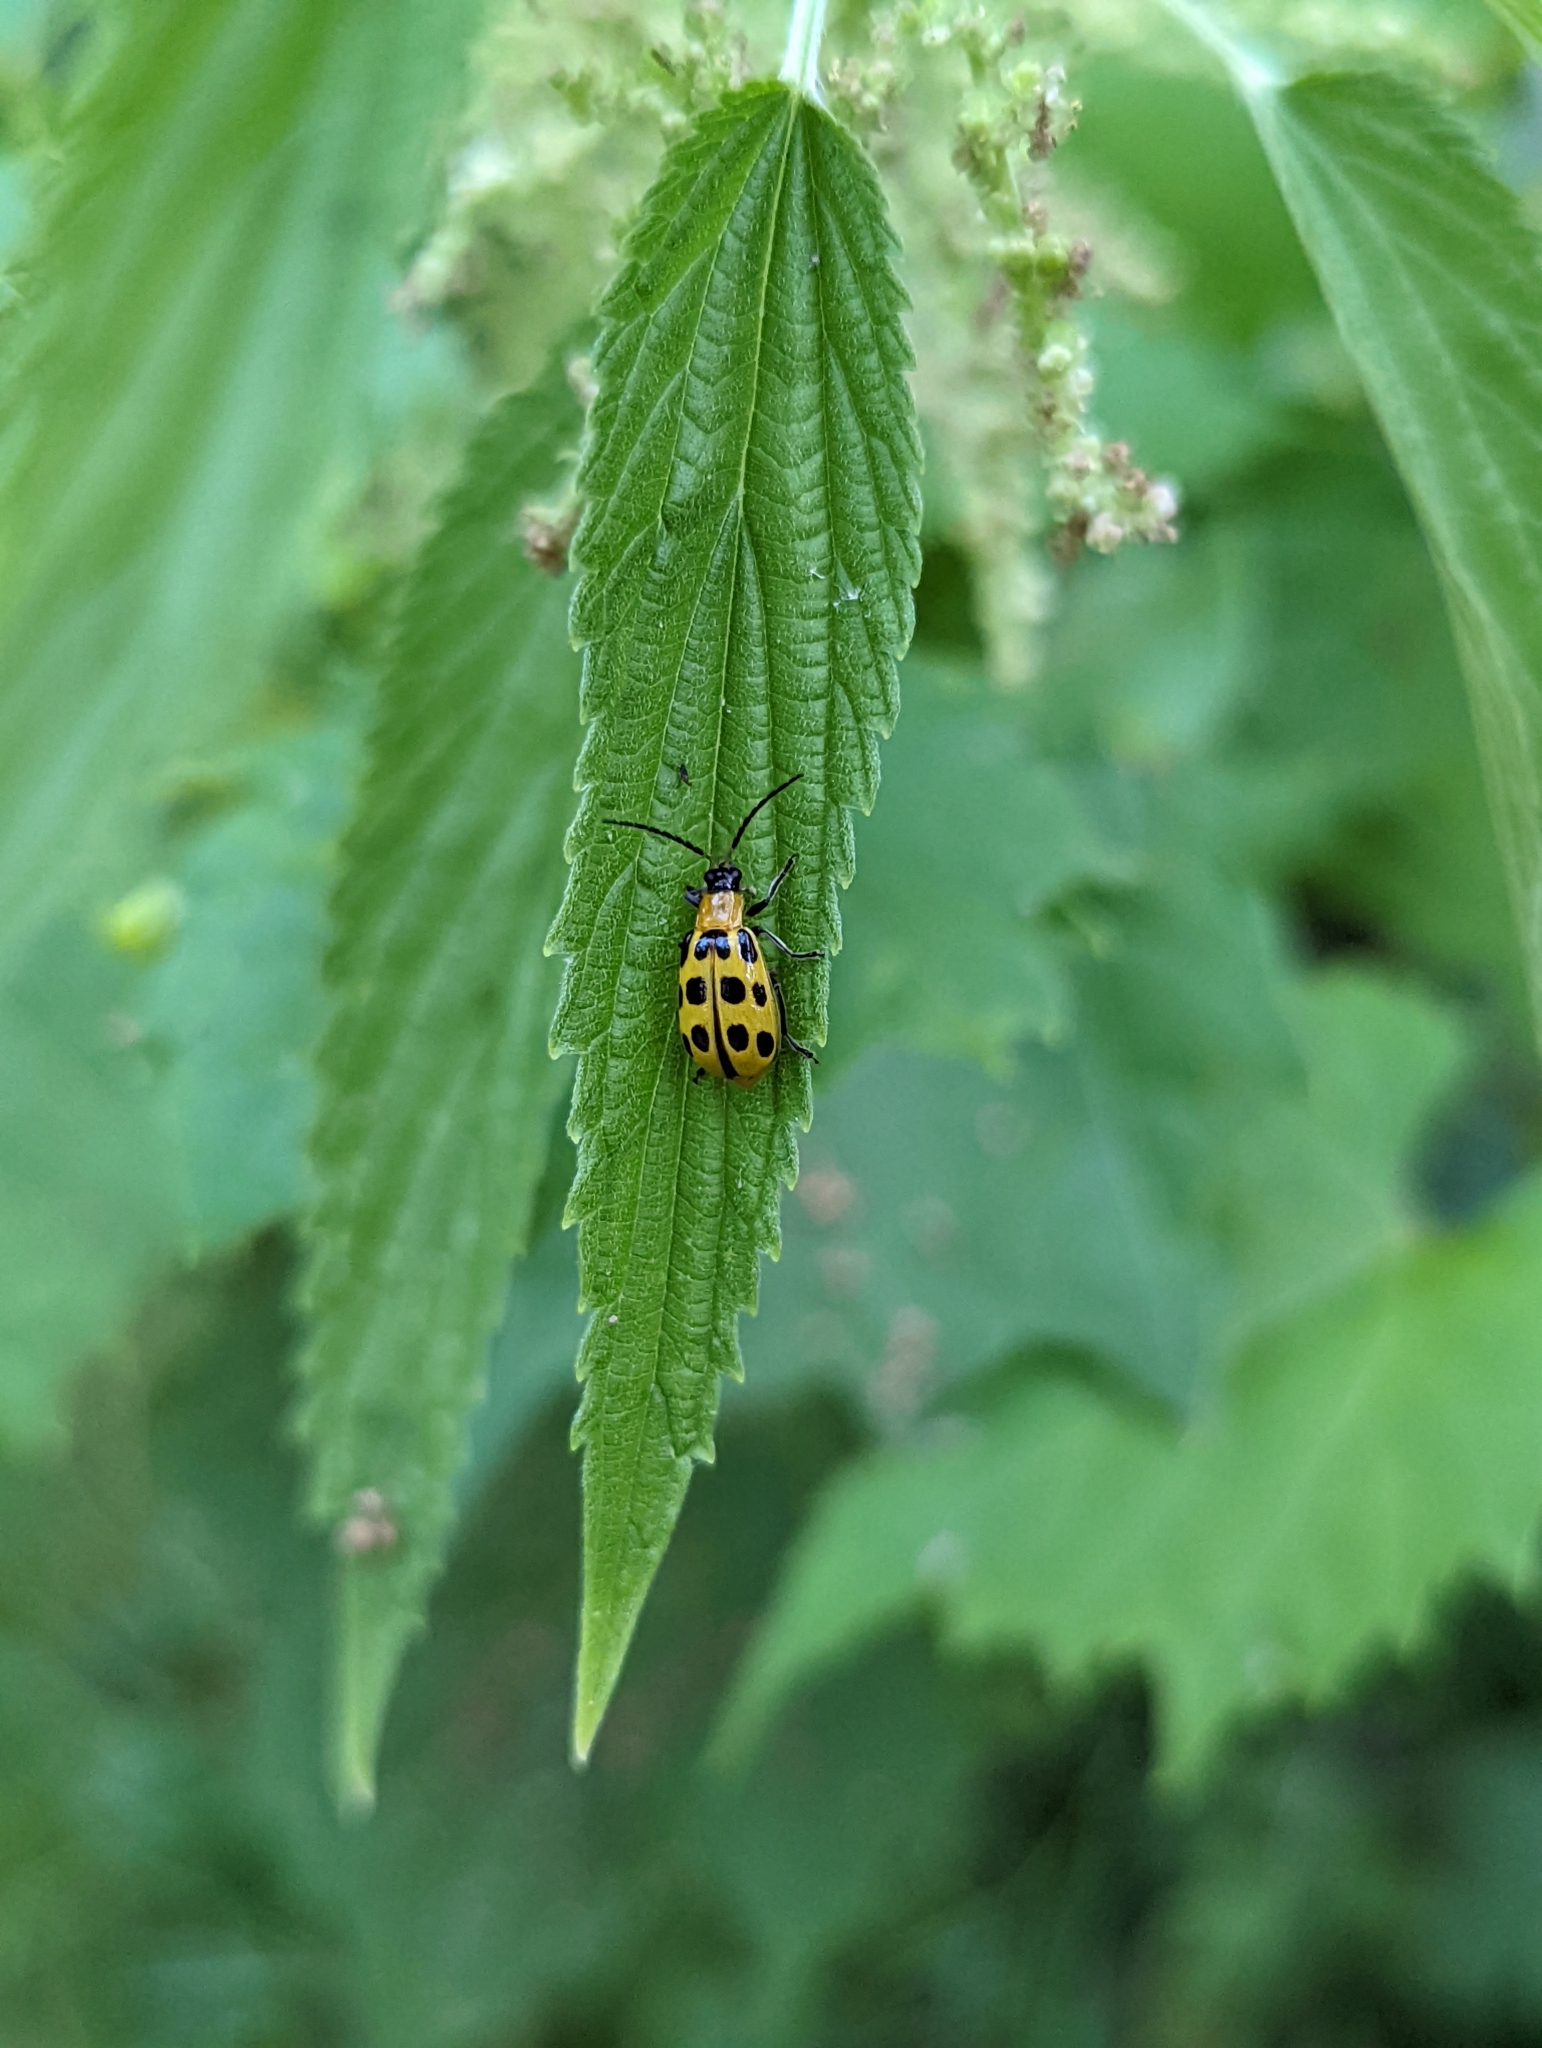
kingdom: Animalia
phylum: Arthropoda
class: Insecta
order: Coleoptera
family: Chrysomelidae
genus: Diabrotica
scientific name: Diabrotica undecimpunctata
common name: Spotted cucumber beetle
